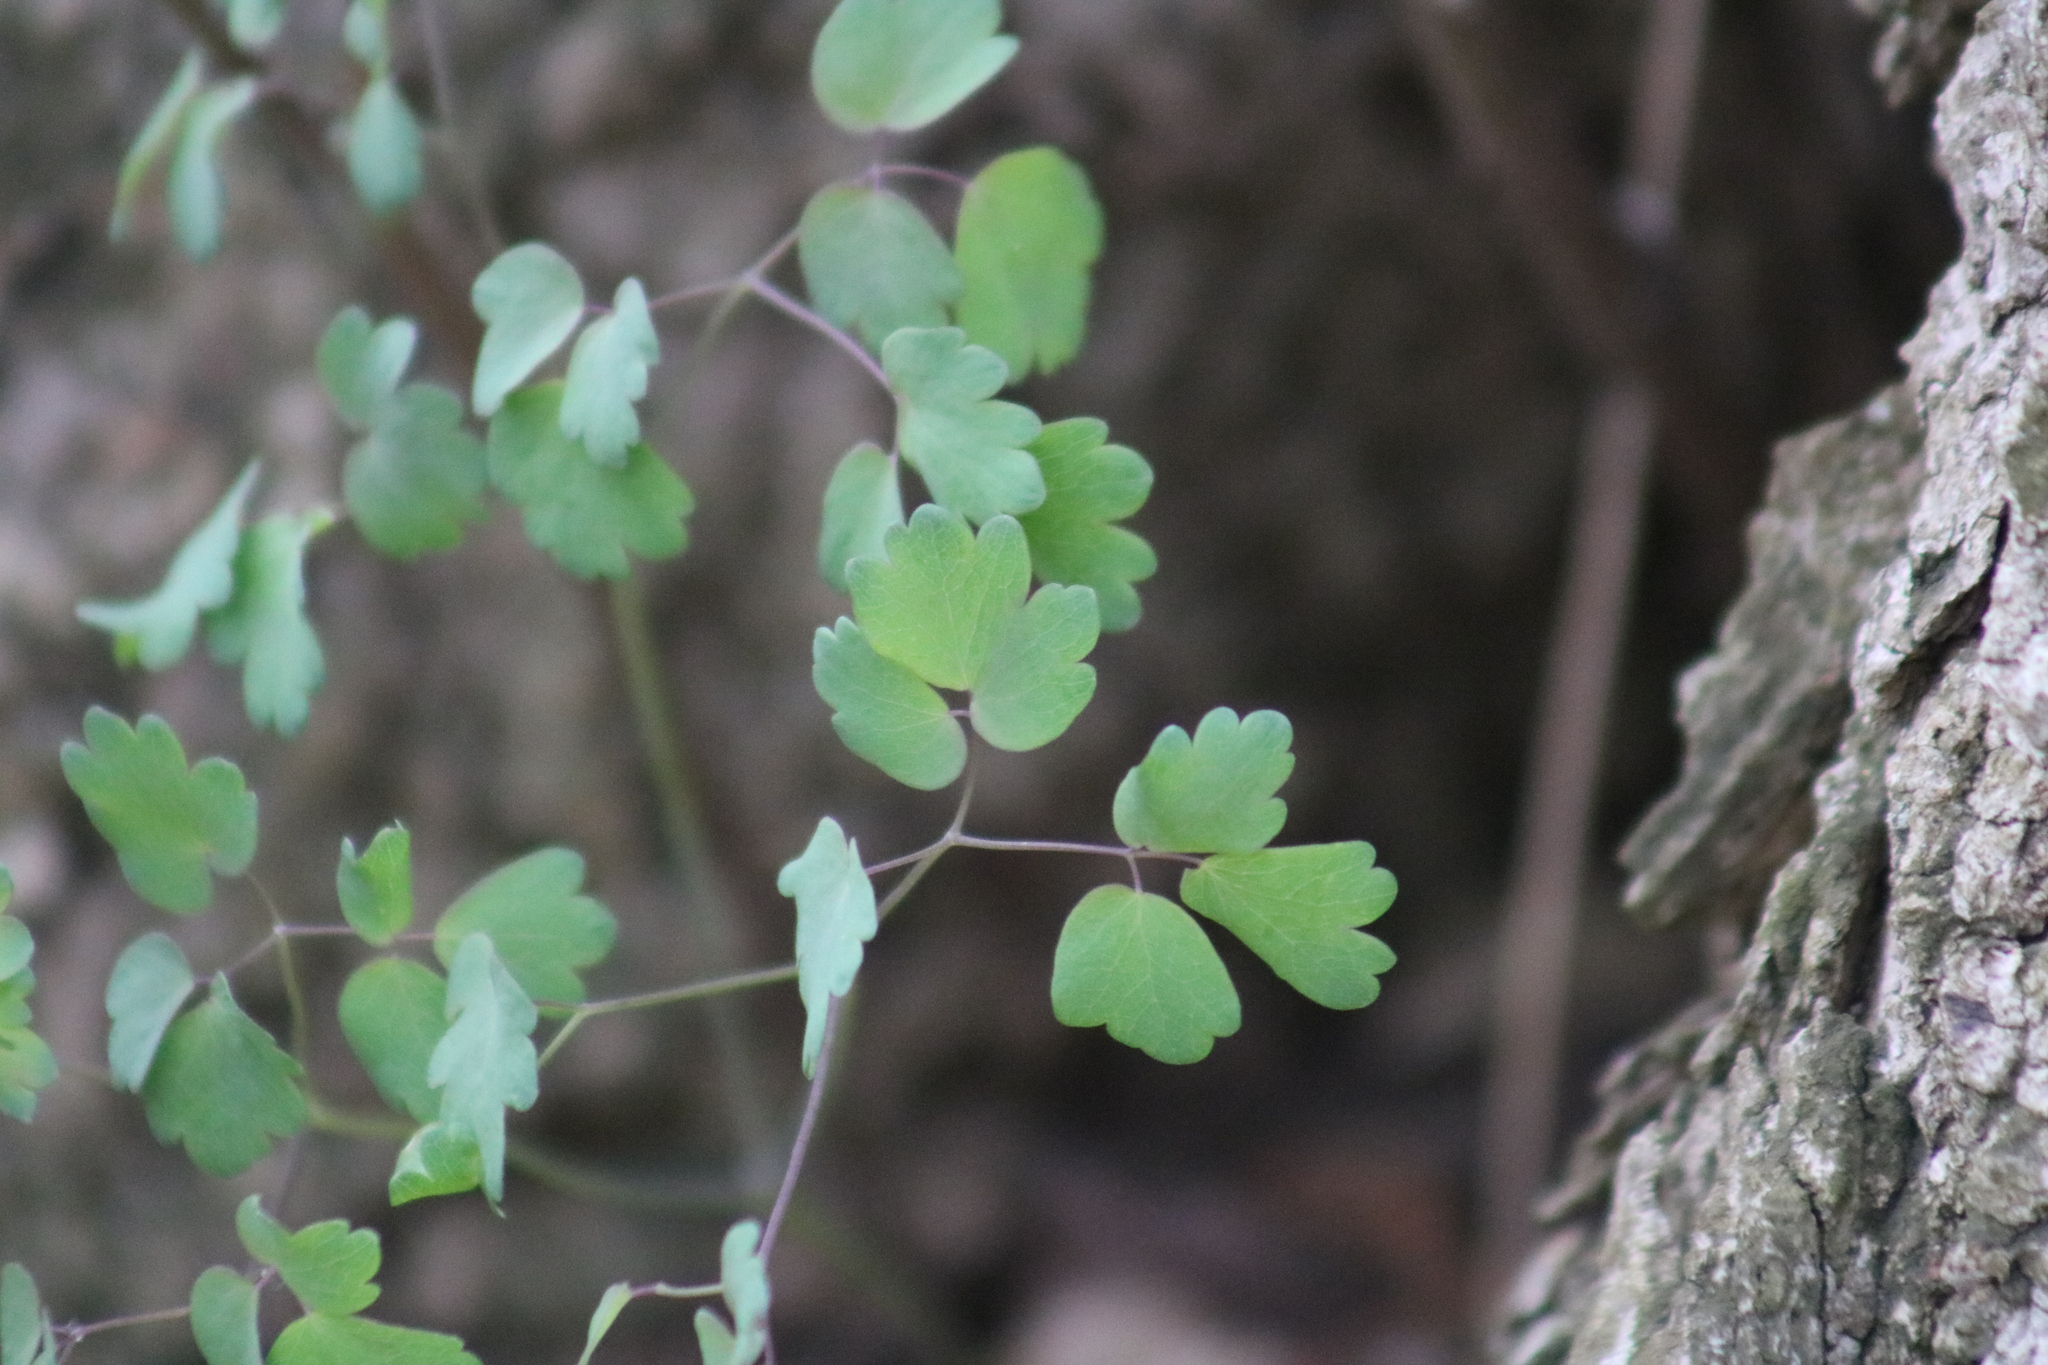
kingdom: Plantae
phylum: Tracheophyta
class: Magnoliopsida
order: Ranunculales
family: Ranunculaceae
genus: Thalictrum
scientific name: Thalictrum dioicum
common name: Early meadow-rue
